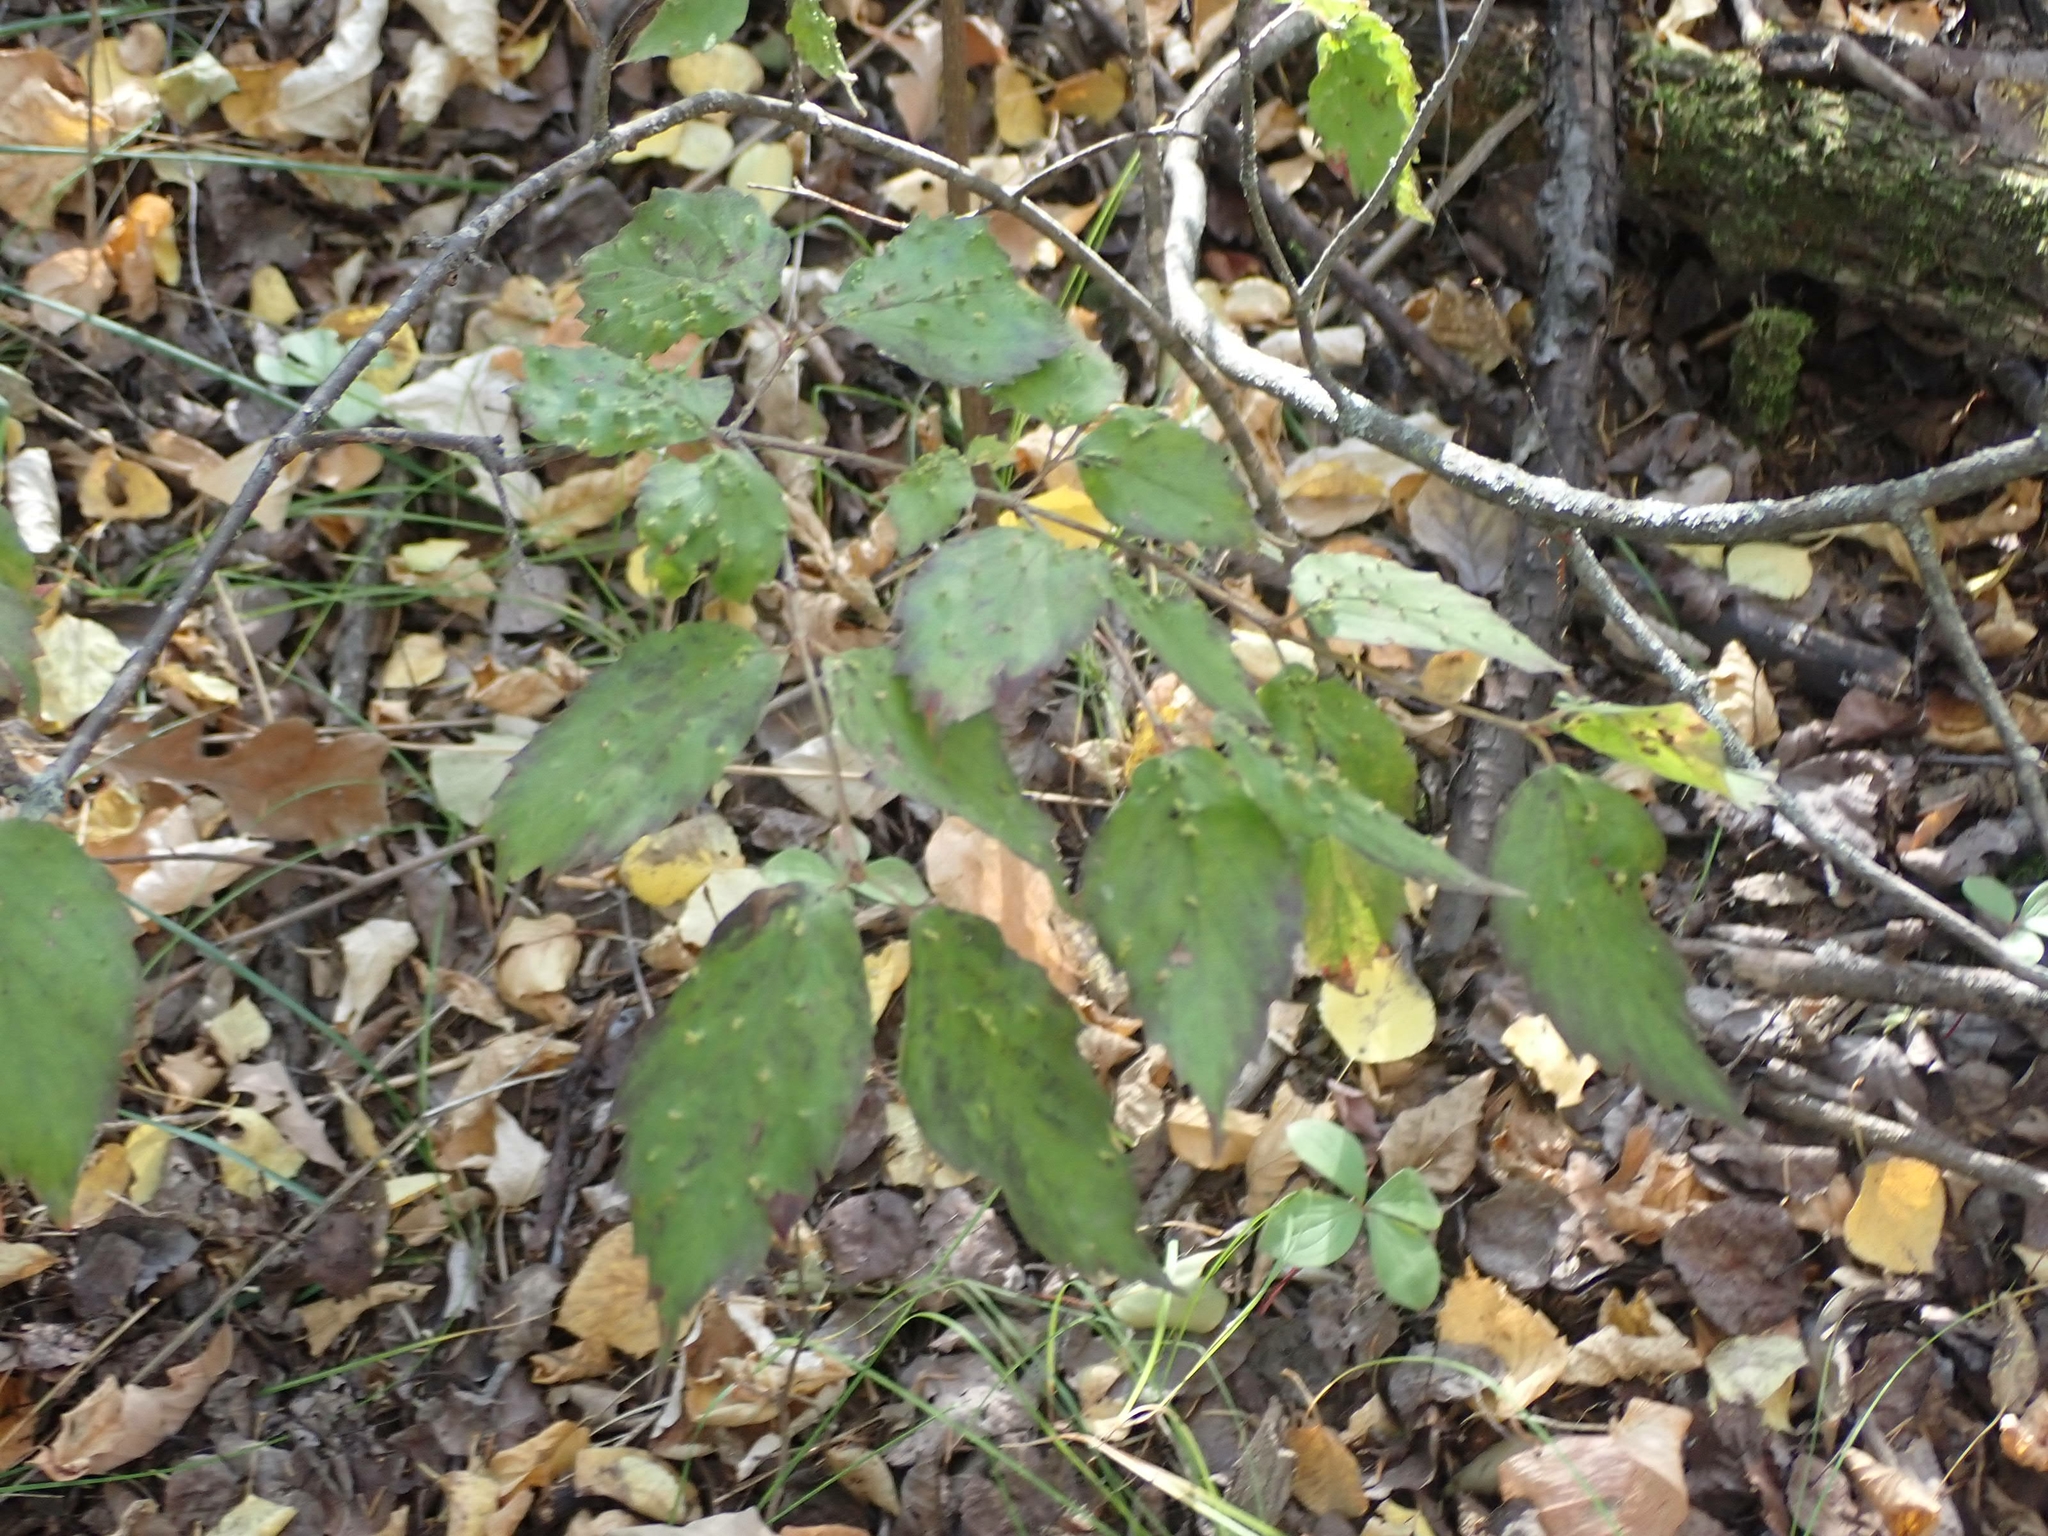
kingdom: Plantae
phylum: Tracheophyta
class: Magnoliopsida
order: Dipsacales
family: Viburnaceae
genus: Viburnum
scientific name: Viburnum rafinesqueanum
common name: Downy arrow-wood
